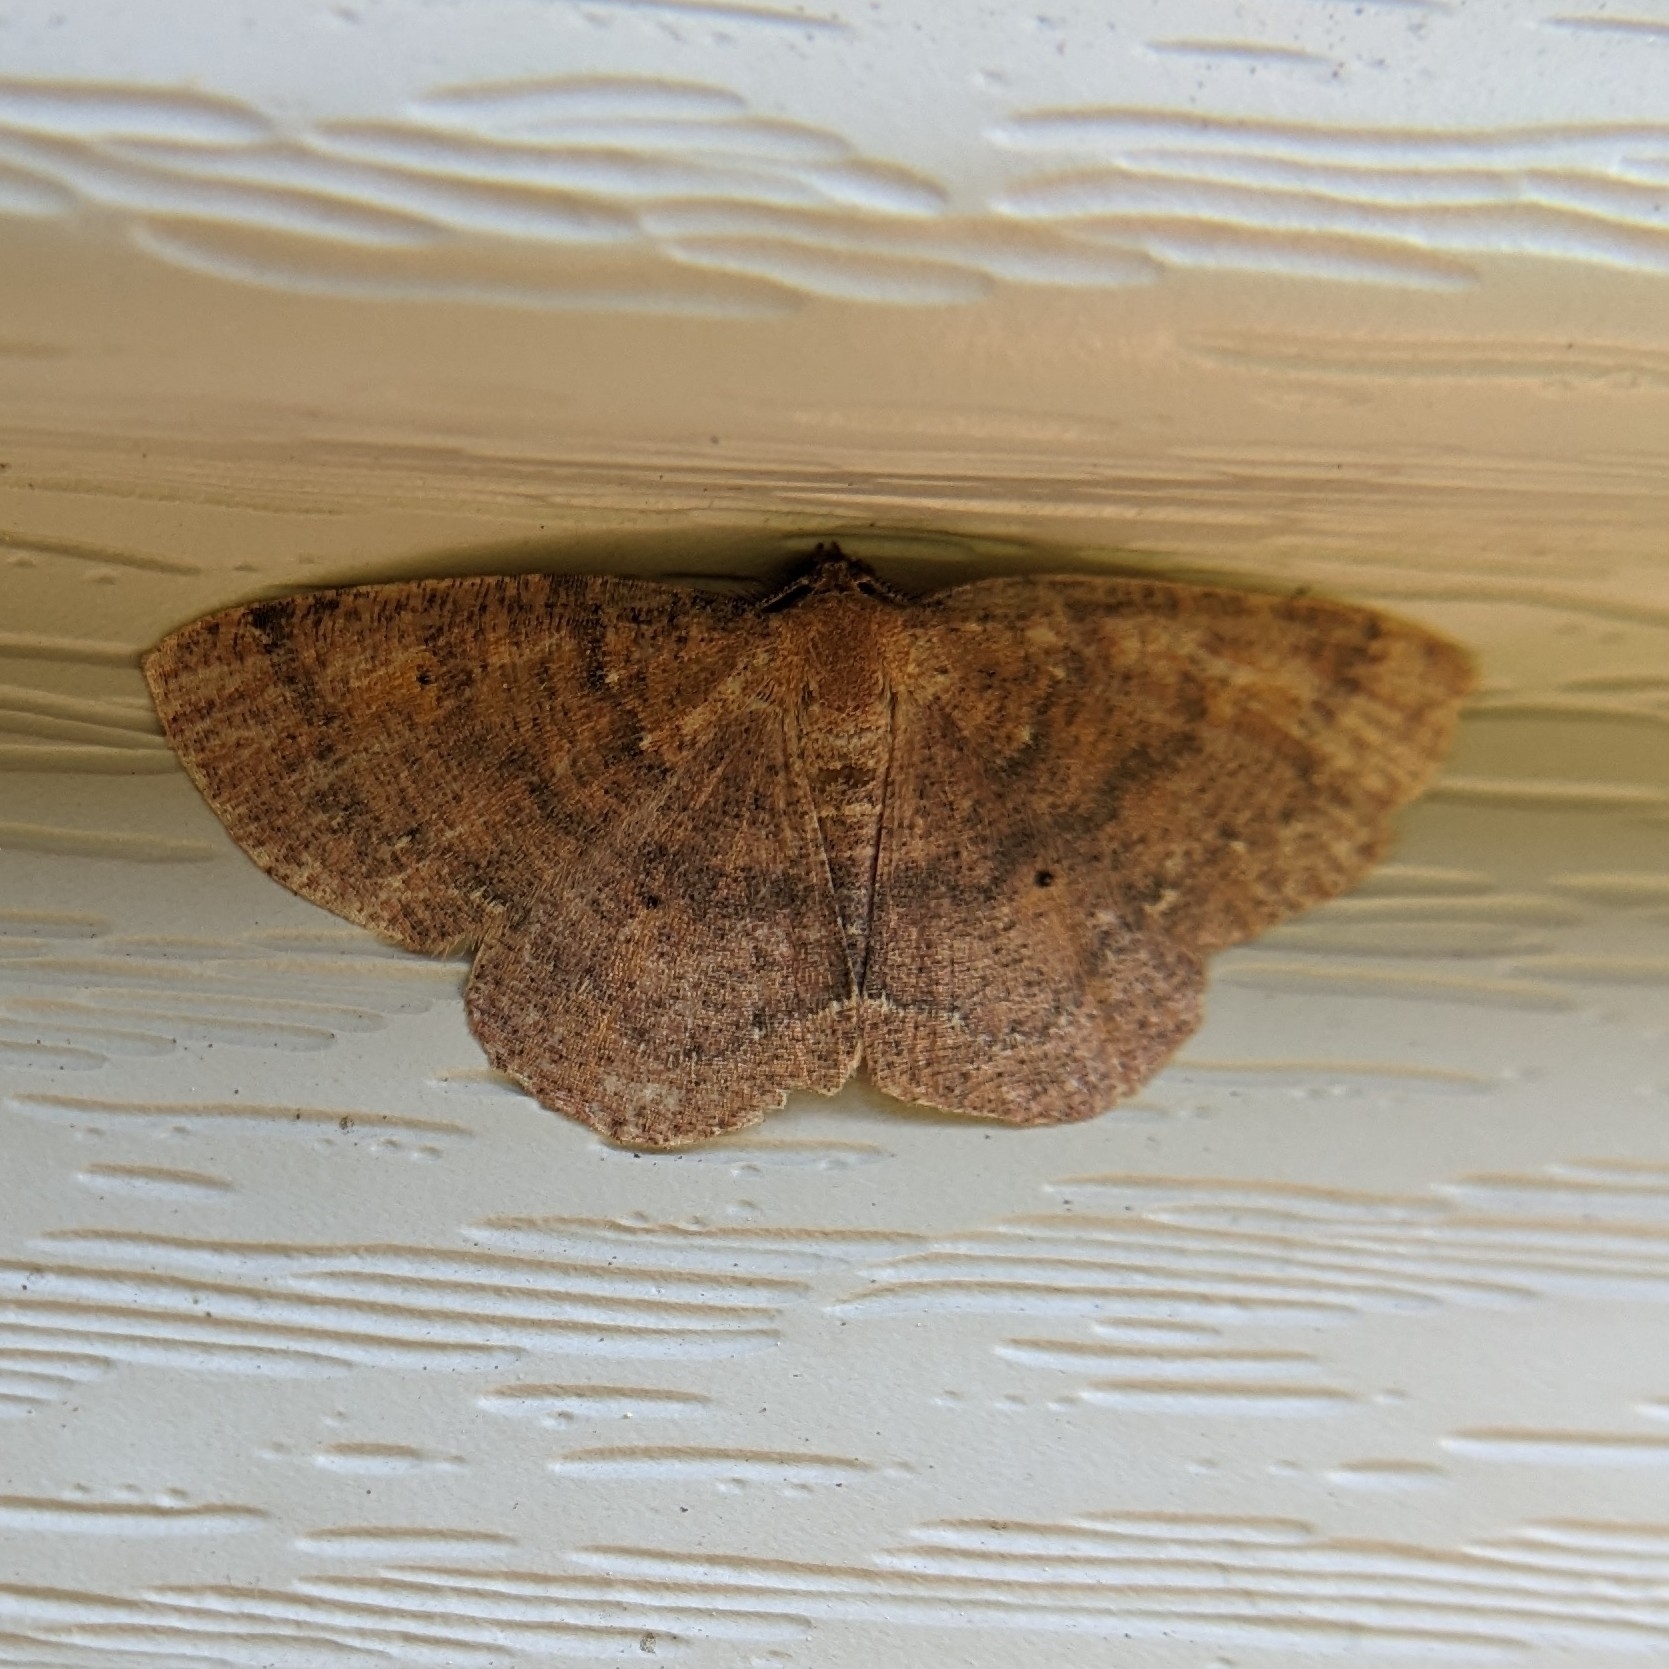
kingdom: Animalia
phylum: Arthropoda
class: Insecta
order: Lepidoptera
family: Geometridae
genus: Ilexia
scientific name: Ilexia intractata
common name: Black-dotted ruddy moth
